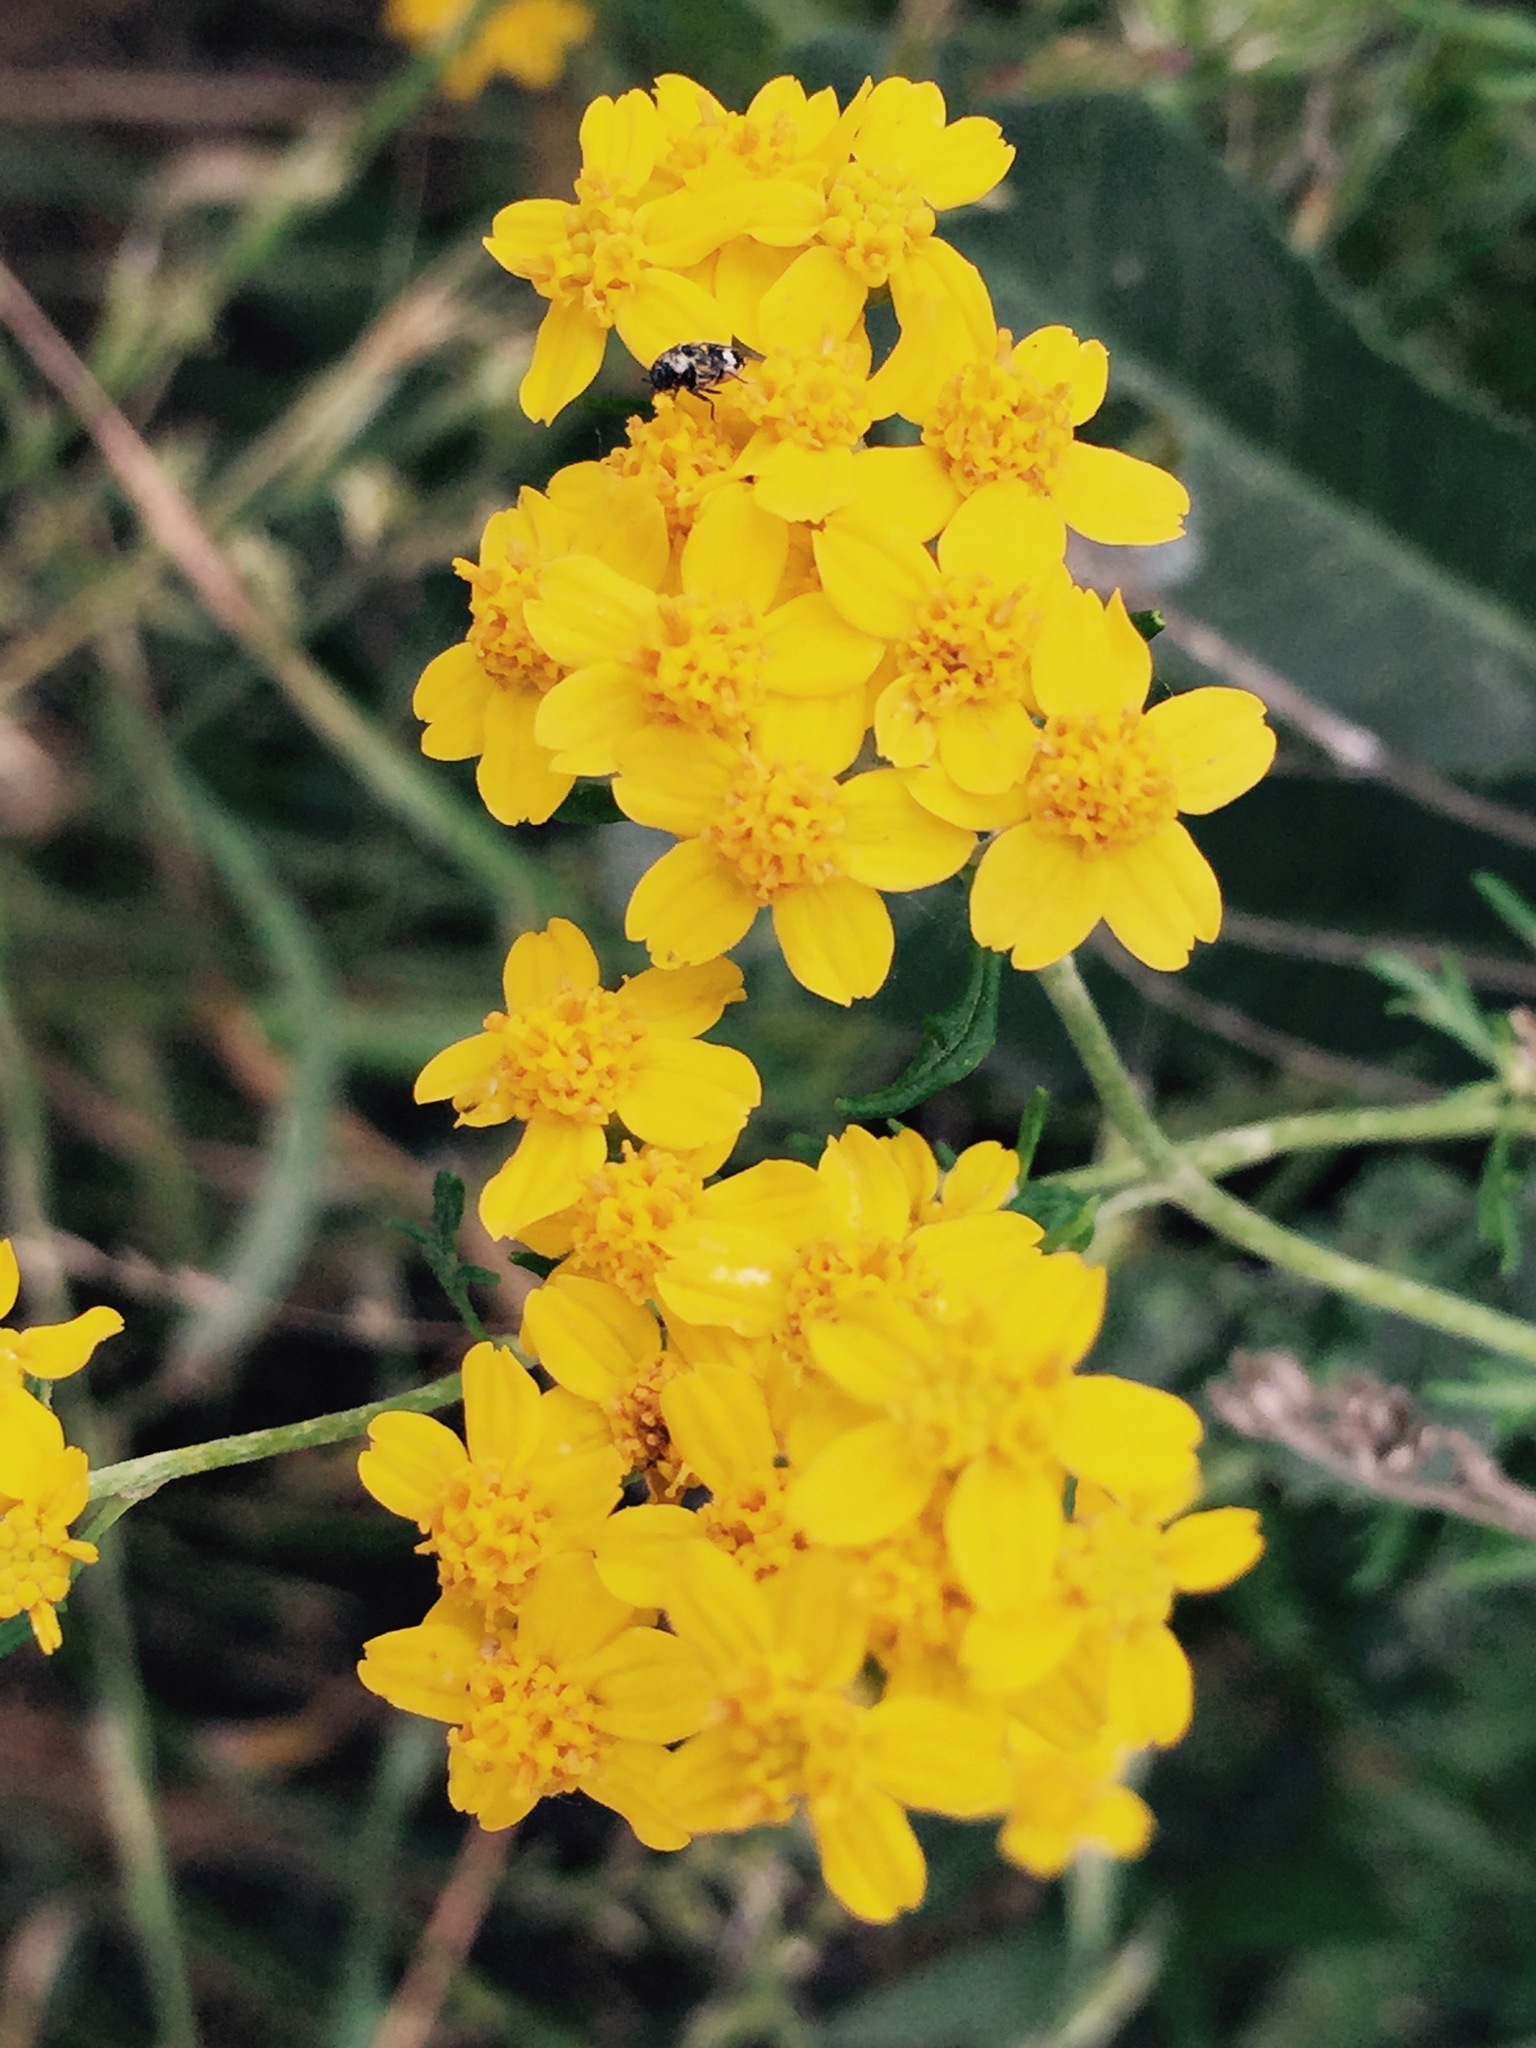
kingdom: Plantae
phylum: Tracheophyta
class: Magnoliopsida
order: Asterales
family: Asteraceae
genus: Eriophyllum
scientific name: Eriophyllum confertiflorum
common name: Golden-yarrow
